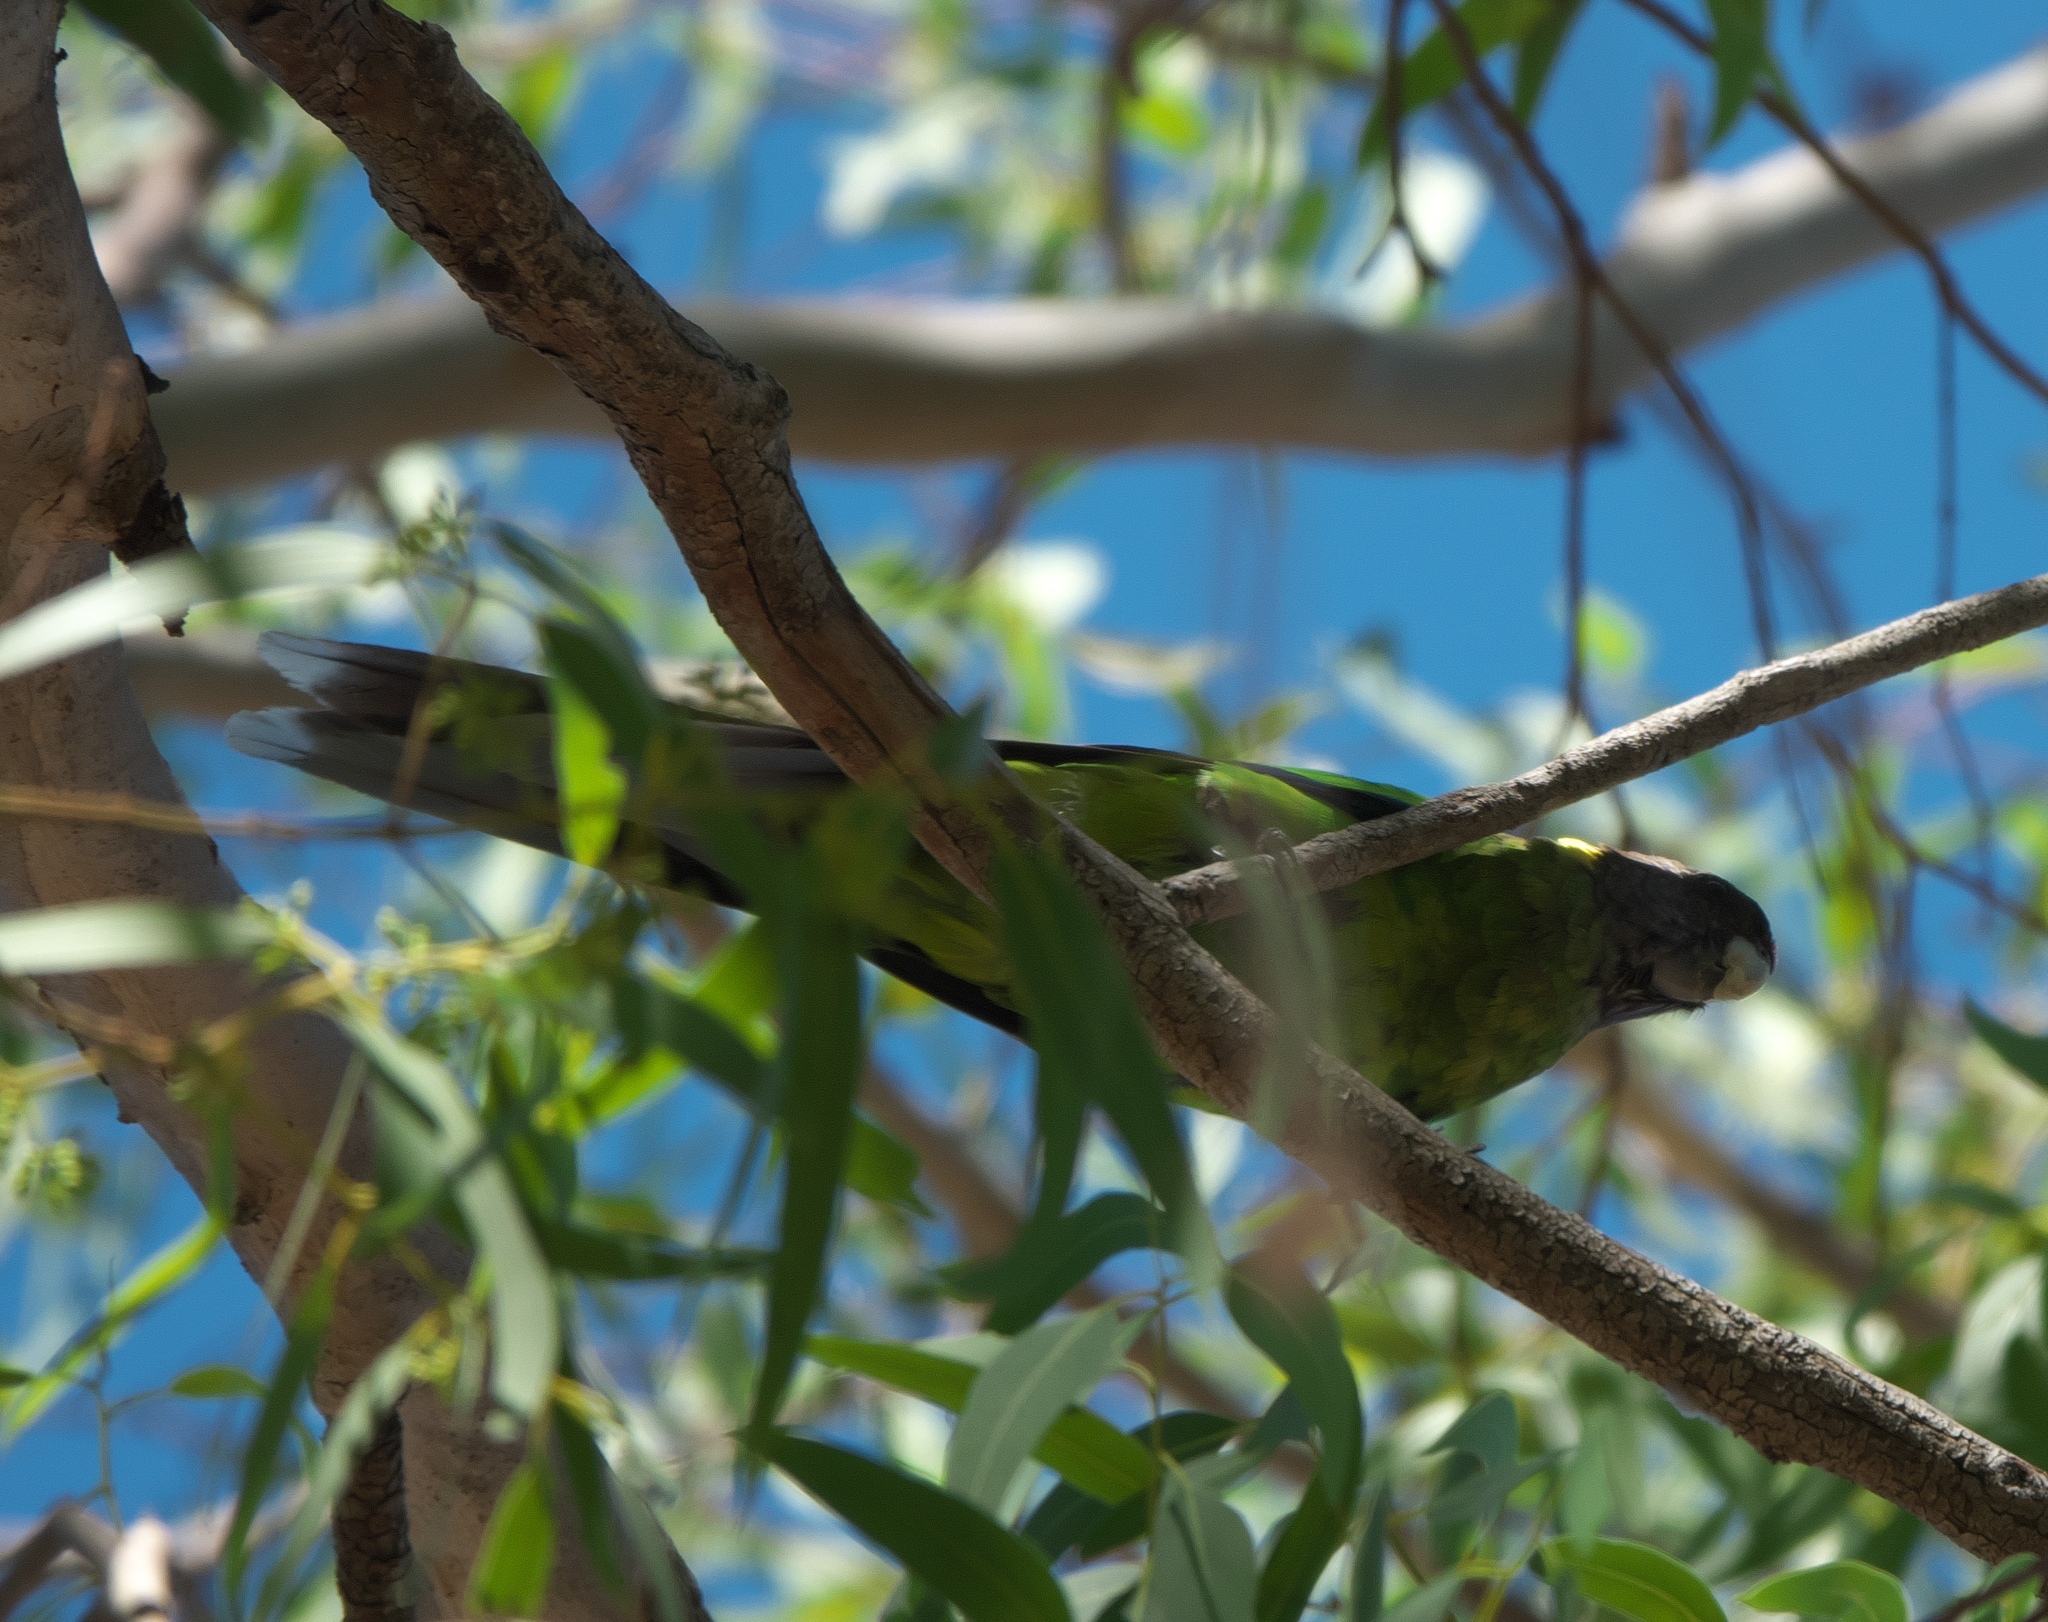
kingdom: Animalia
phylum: Chordata
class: Aves
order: Psittaciformes
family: Psittacidae
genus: Barnardius
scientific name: Barnardius zonarius
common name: Australian ringneck
